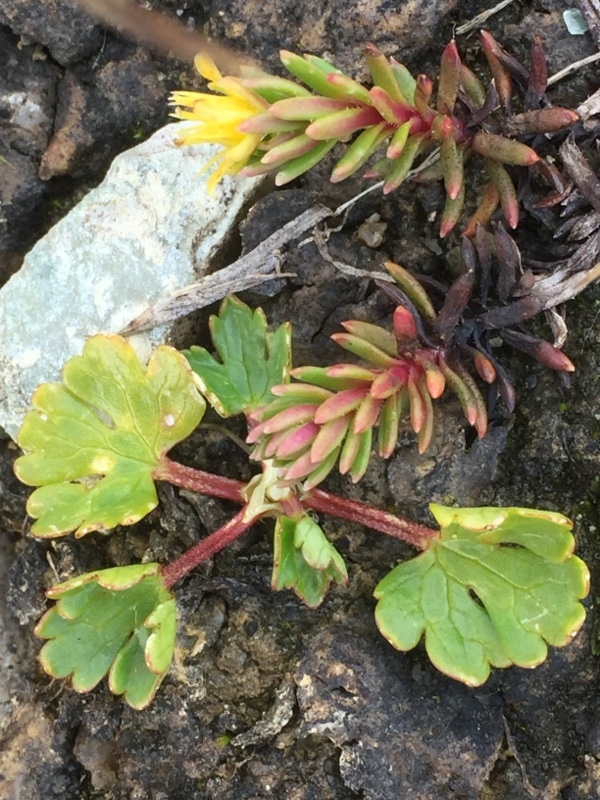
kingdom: Plantae
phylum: Tracheophyta
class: Magnoliopsida
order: Saxifragales
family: Saxifragaceae
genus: Saxifraga
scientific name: Saxifraga aizoides
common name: Yellow mountain saxifrage
